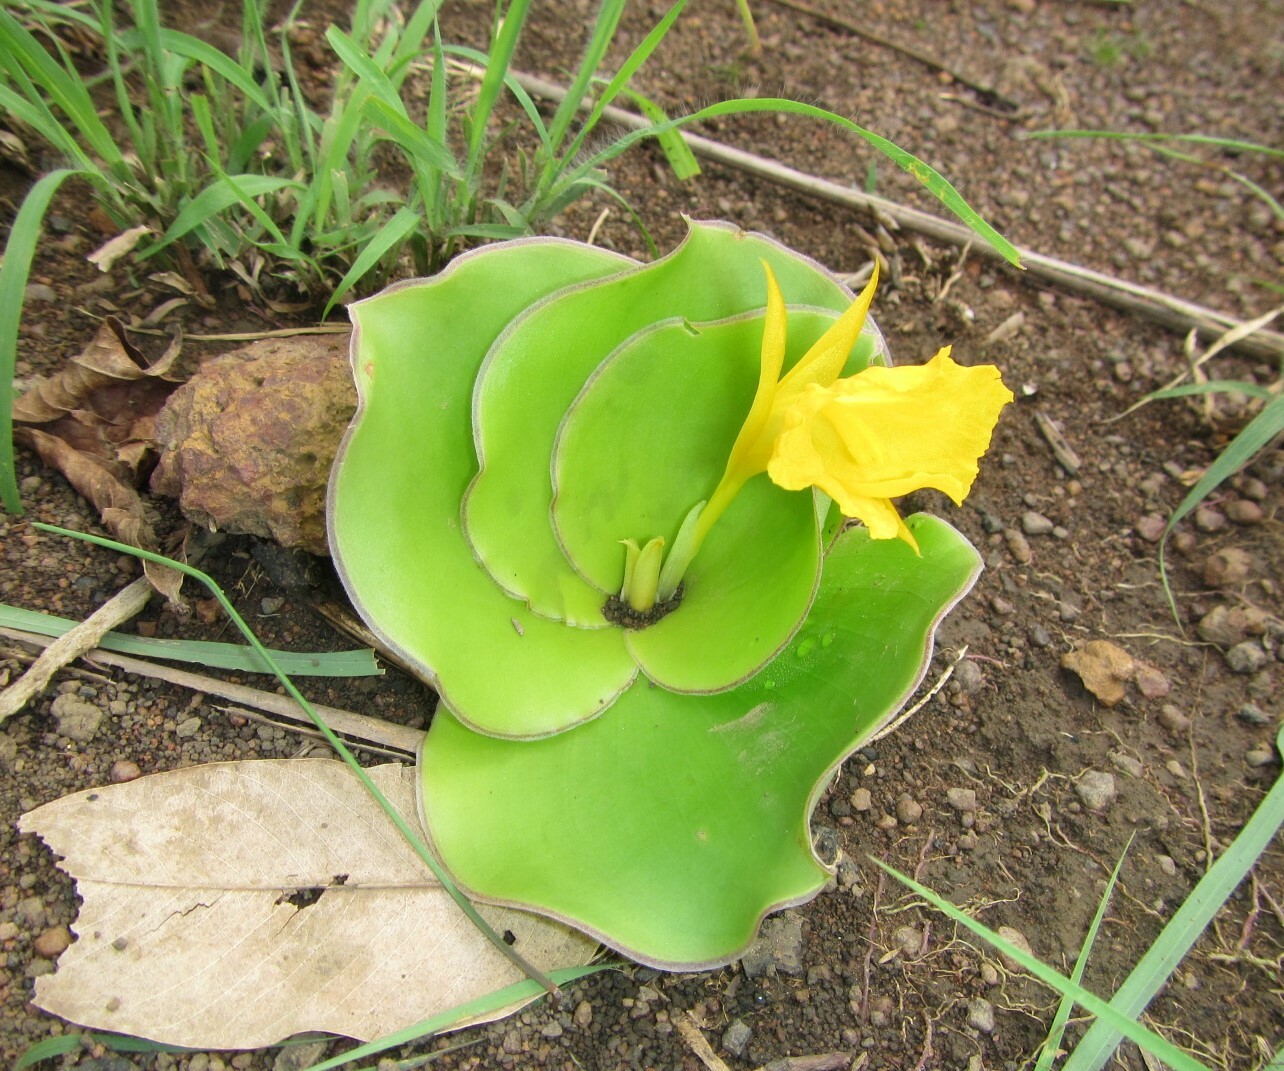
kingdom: Plantae
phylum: Tracheophyta
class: Liliopsida
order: Zingiberales
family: Costaceae
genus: Costus
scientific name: Costus spectabilis
